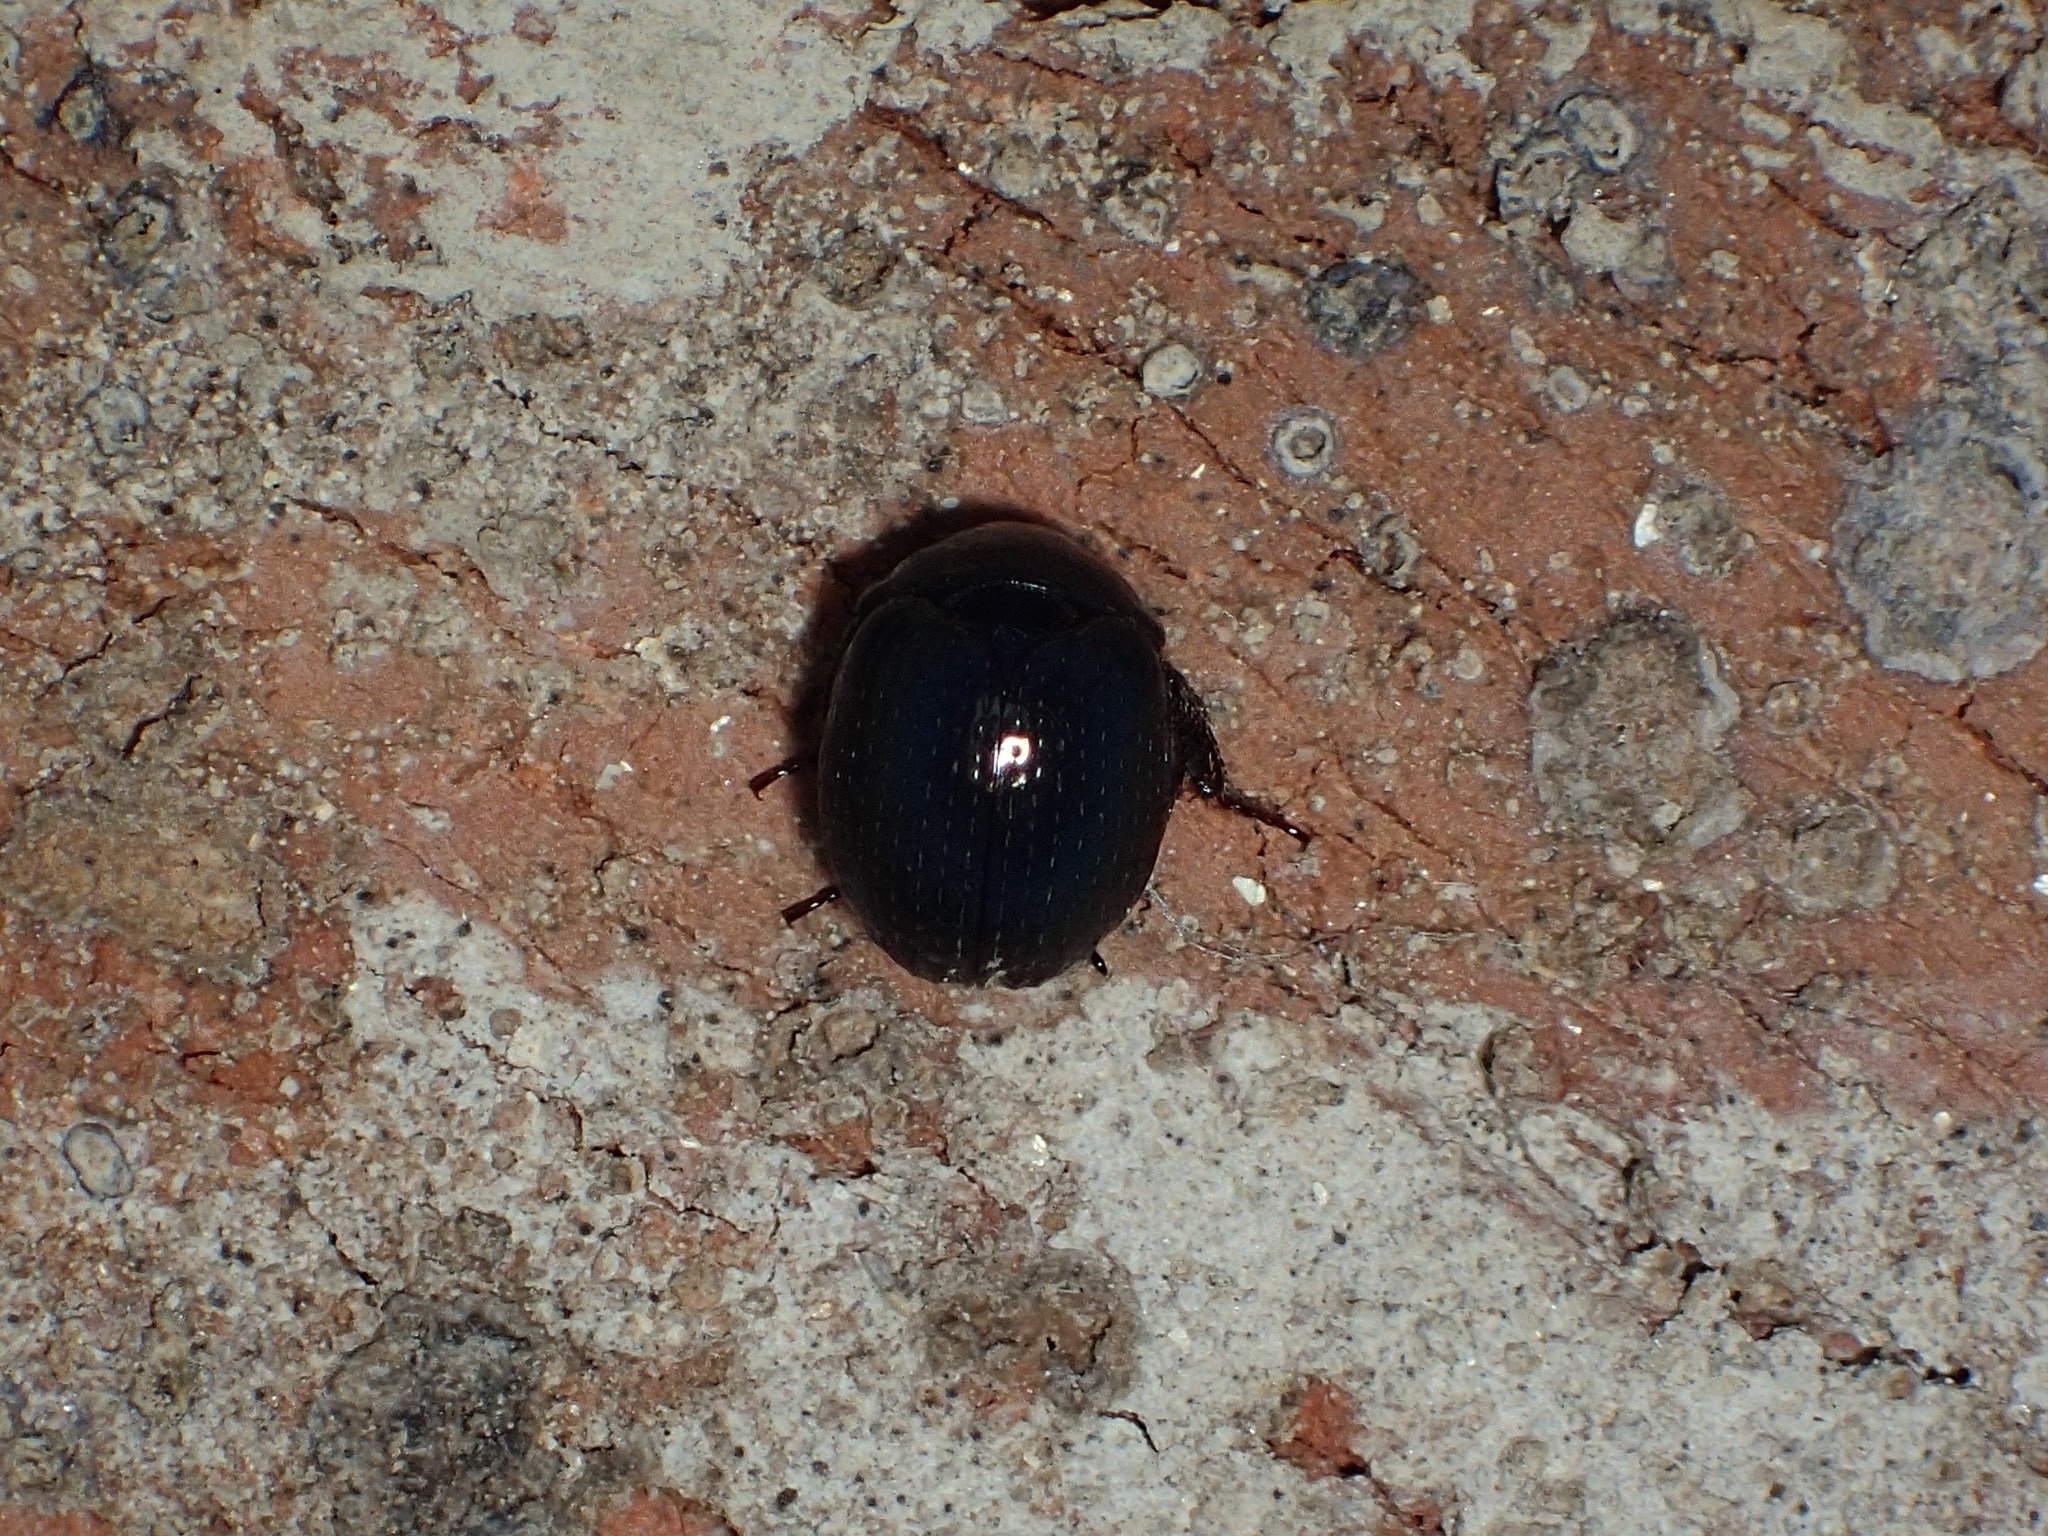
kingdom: Animalia
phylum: Arthropoda
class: Insecta
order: Coleoptera
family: Hybosoridae
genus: Germarostes
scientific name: Germarostes globosus
